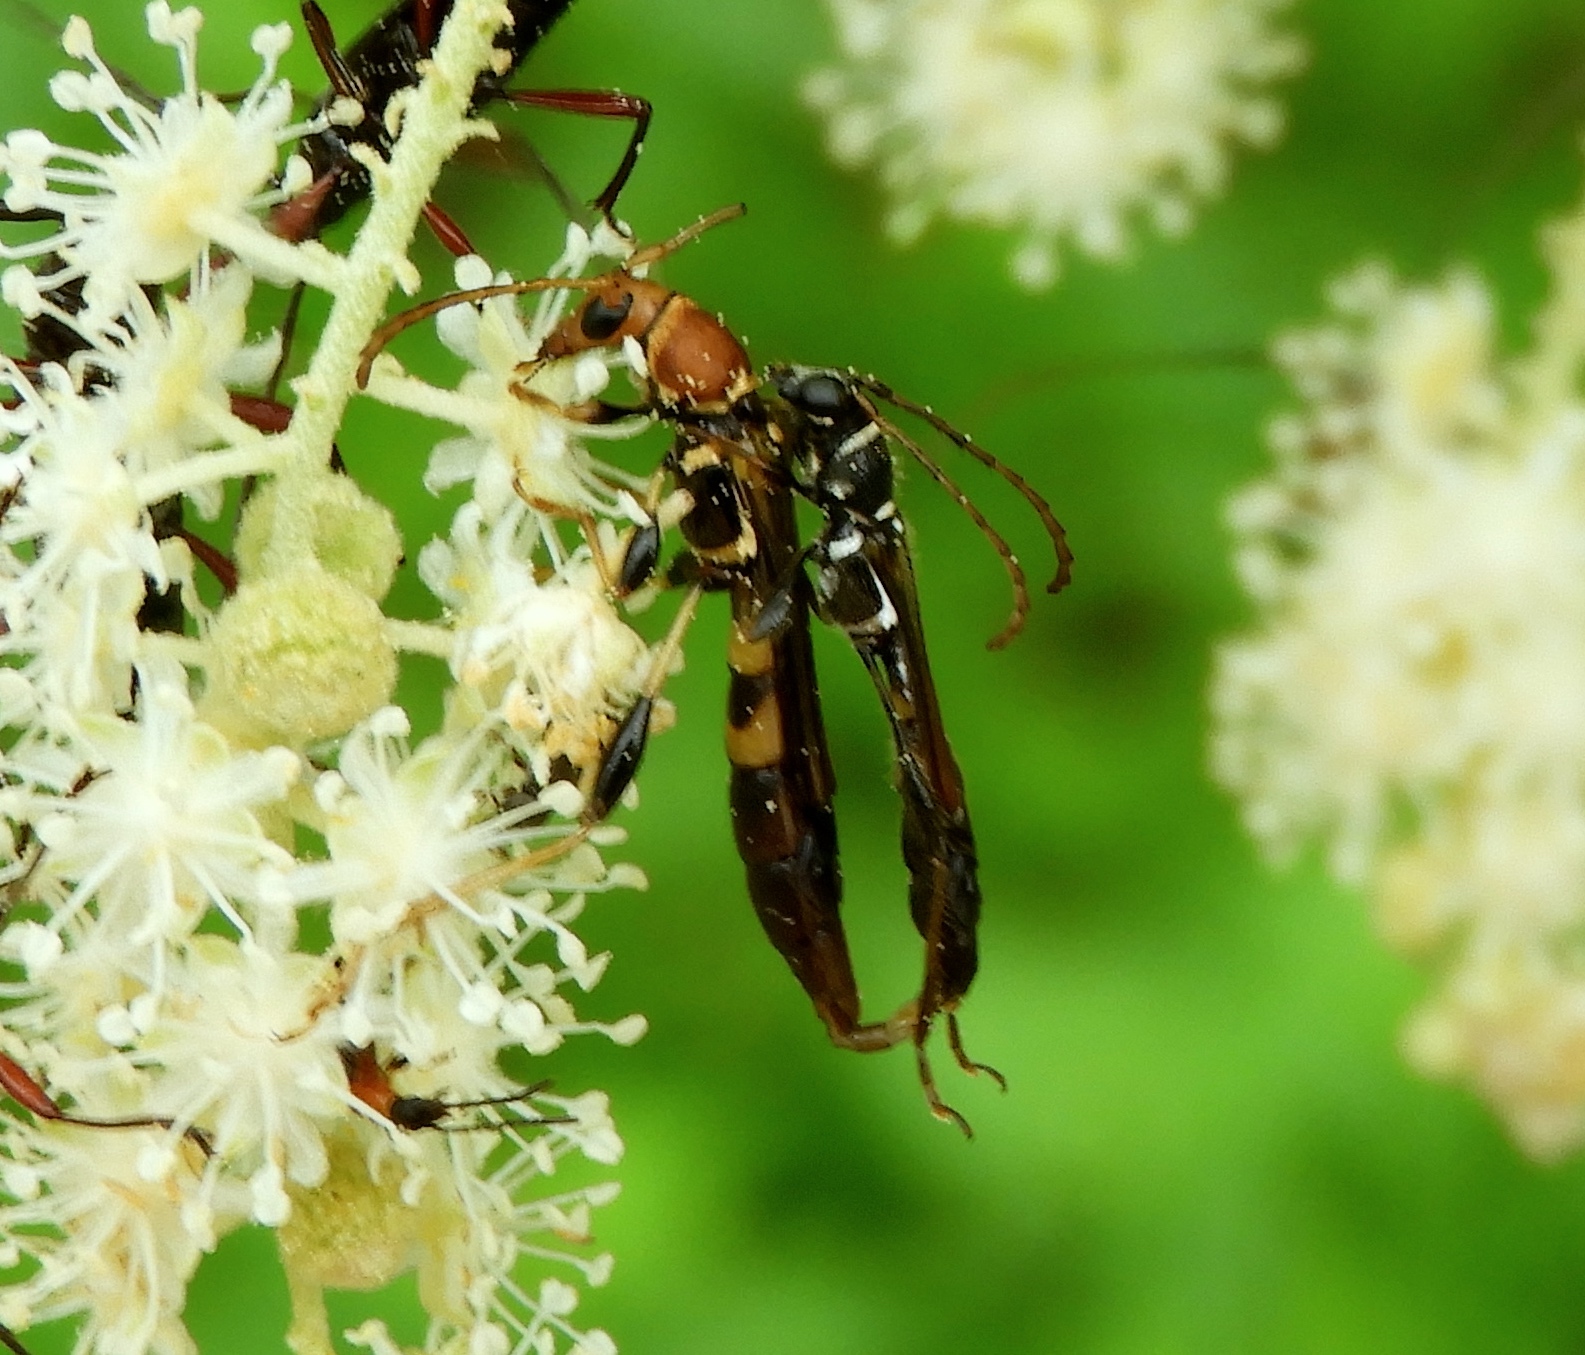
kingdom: Animalia
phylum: Arthropoda
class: Insecta
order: Coleoptera
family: Cerambycidae
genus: Odontocera
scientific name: Odontocera aurocincta
